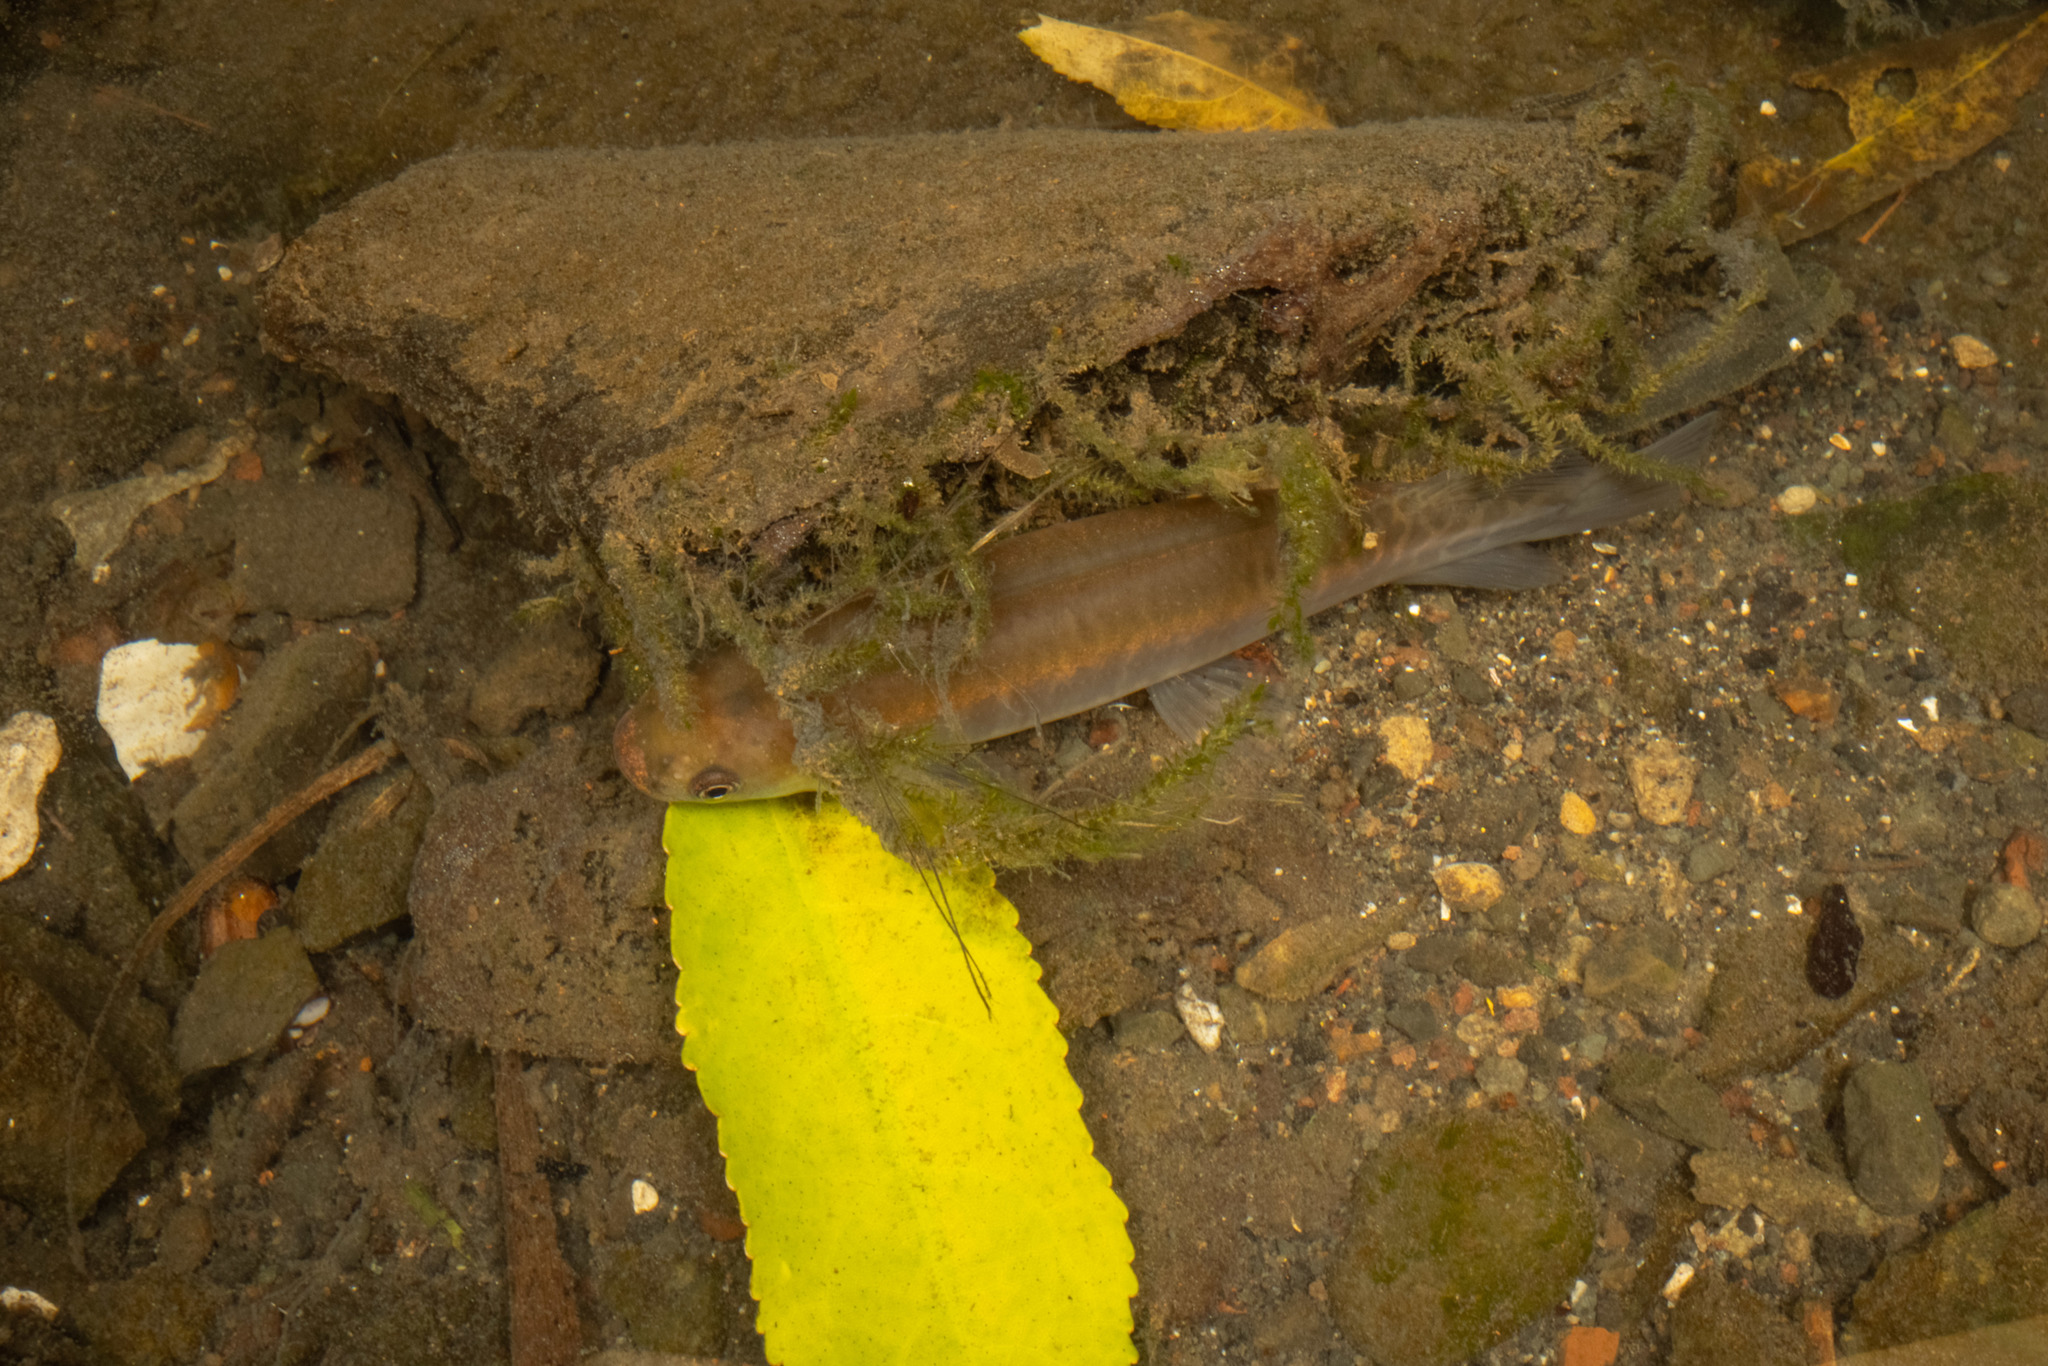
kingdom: Animalia
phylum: Chordata
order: Osmeriformes
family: Galaxiidae
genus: Galaxias
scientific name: Galaxias fasciatus
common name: Banded kokopu
